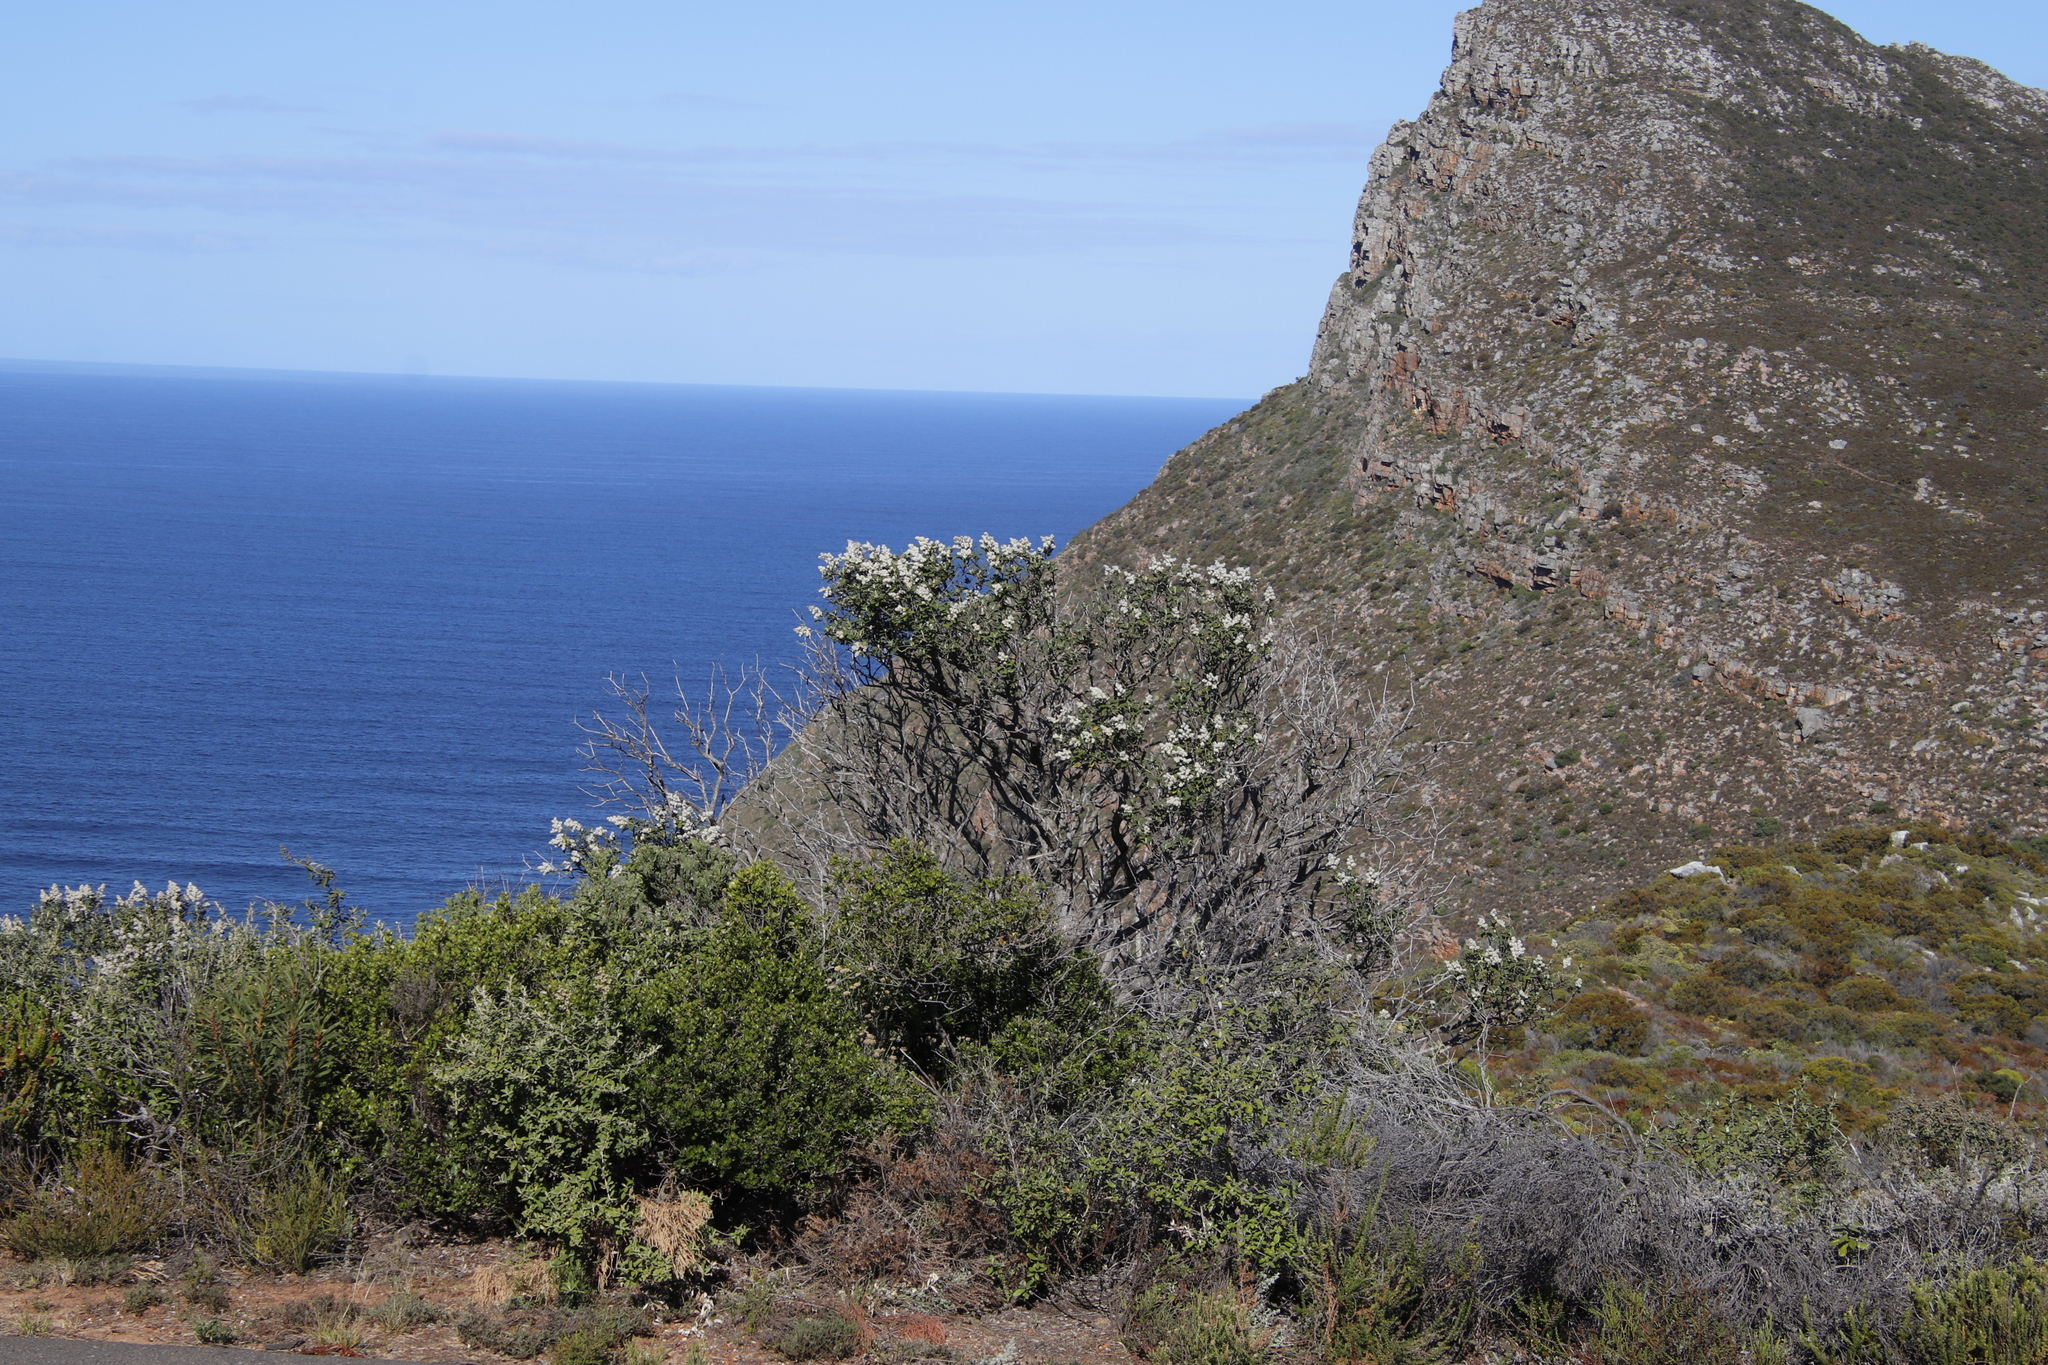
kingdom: Plantae
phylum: Tracheophyta
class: Magnoliopsida
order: Asterales
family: Asteraceae
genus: Tarchonanthus
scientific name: Tarchonanthus littoralis
